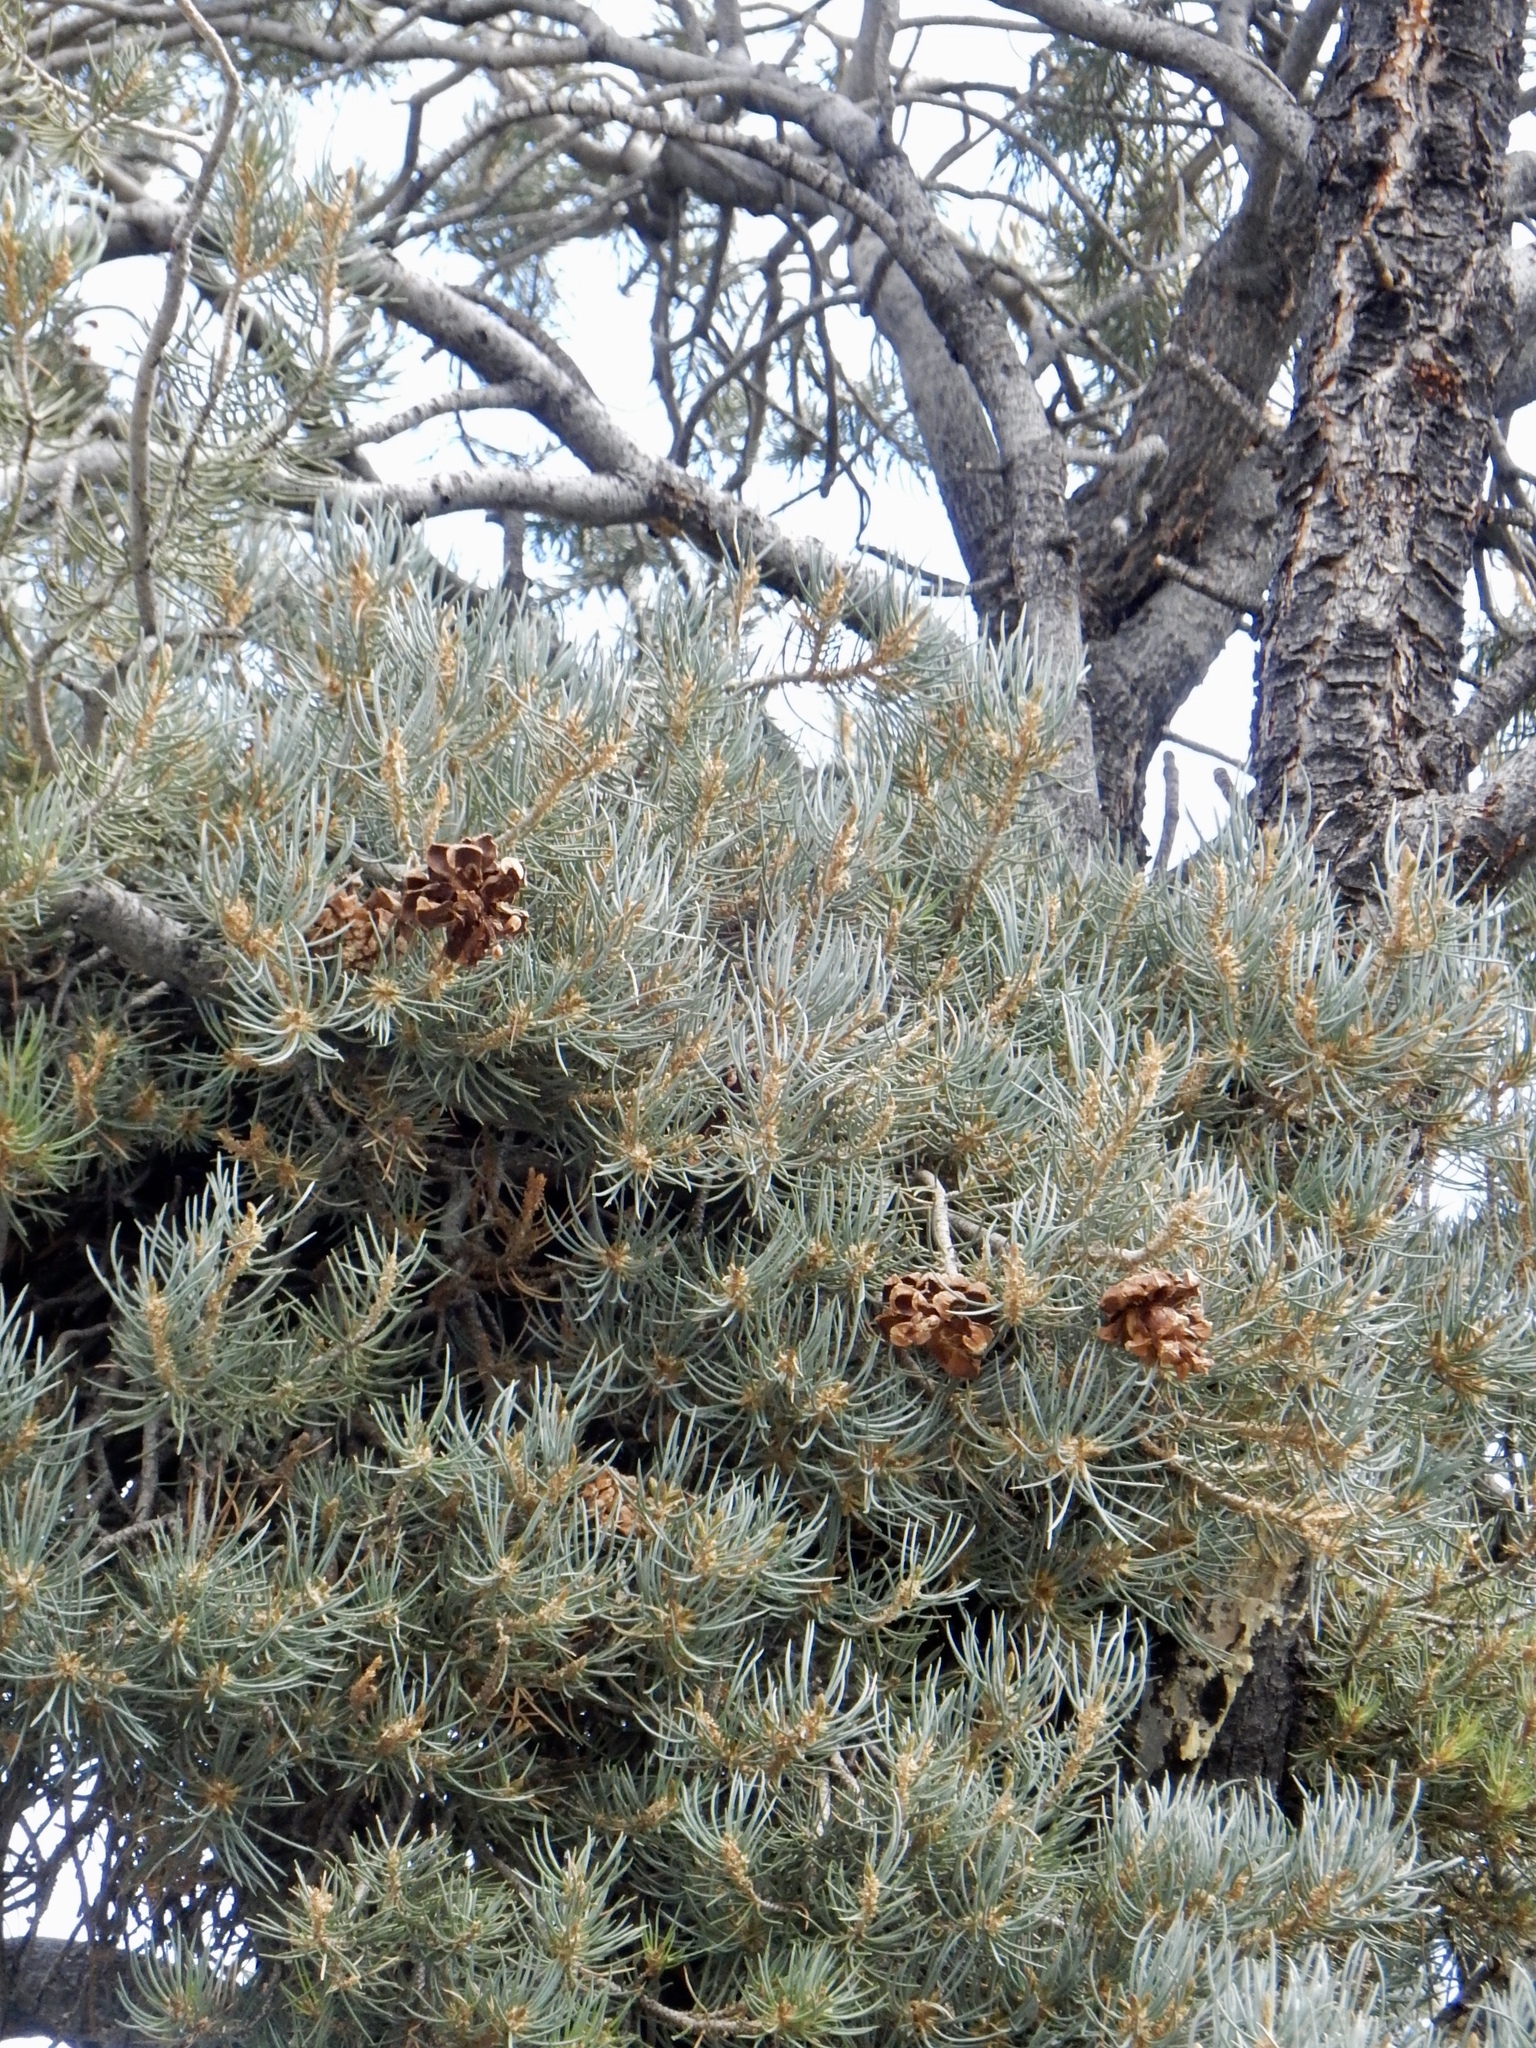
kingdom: Plantae
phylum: Tracheophyta
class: Pinopsida
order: Pinales
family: Pinaceae
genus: Pinus
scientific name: Pinus monophylla
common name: One-leaved nut pine
